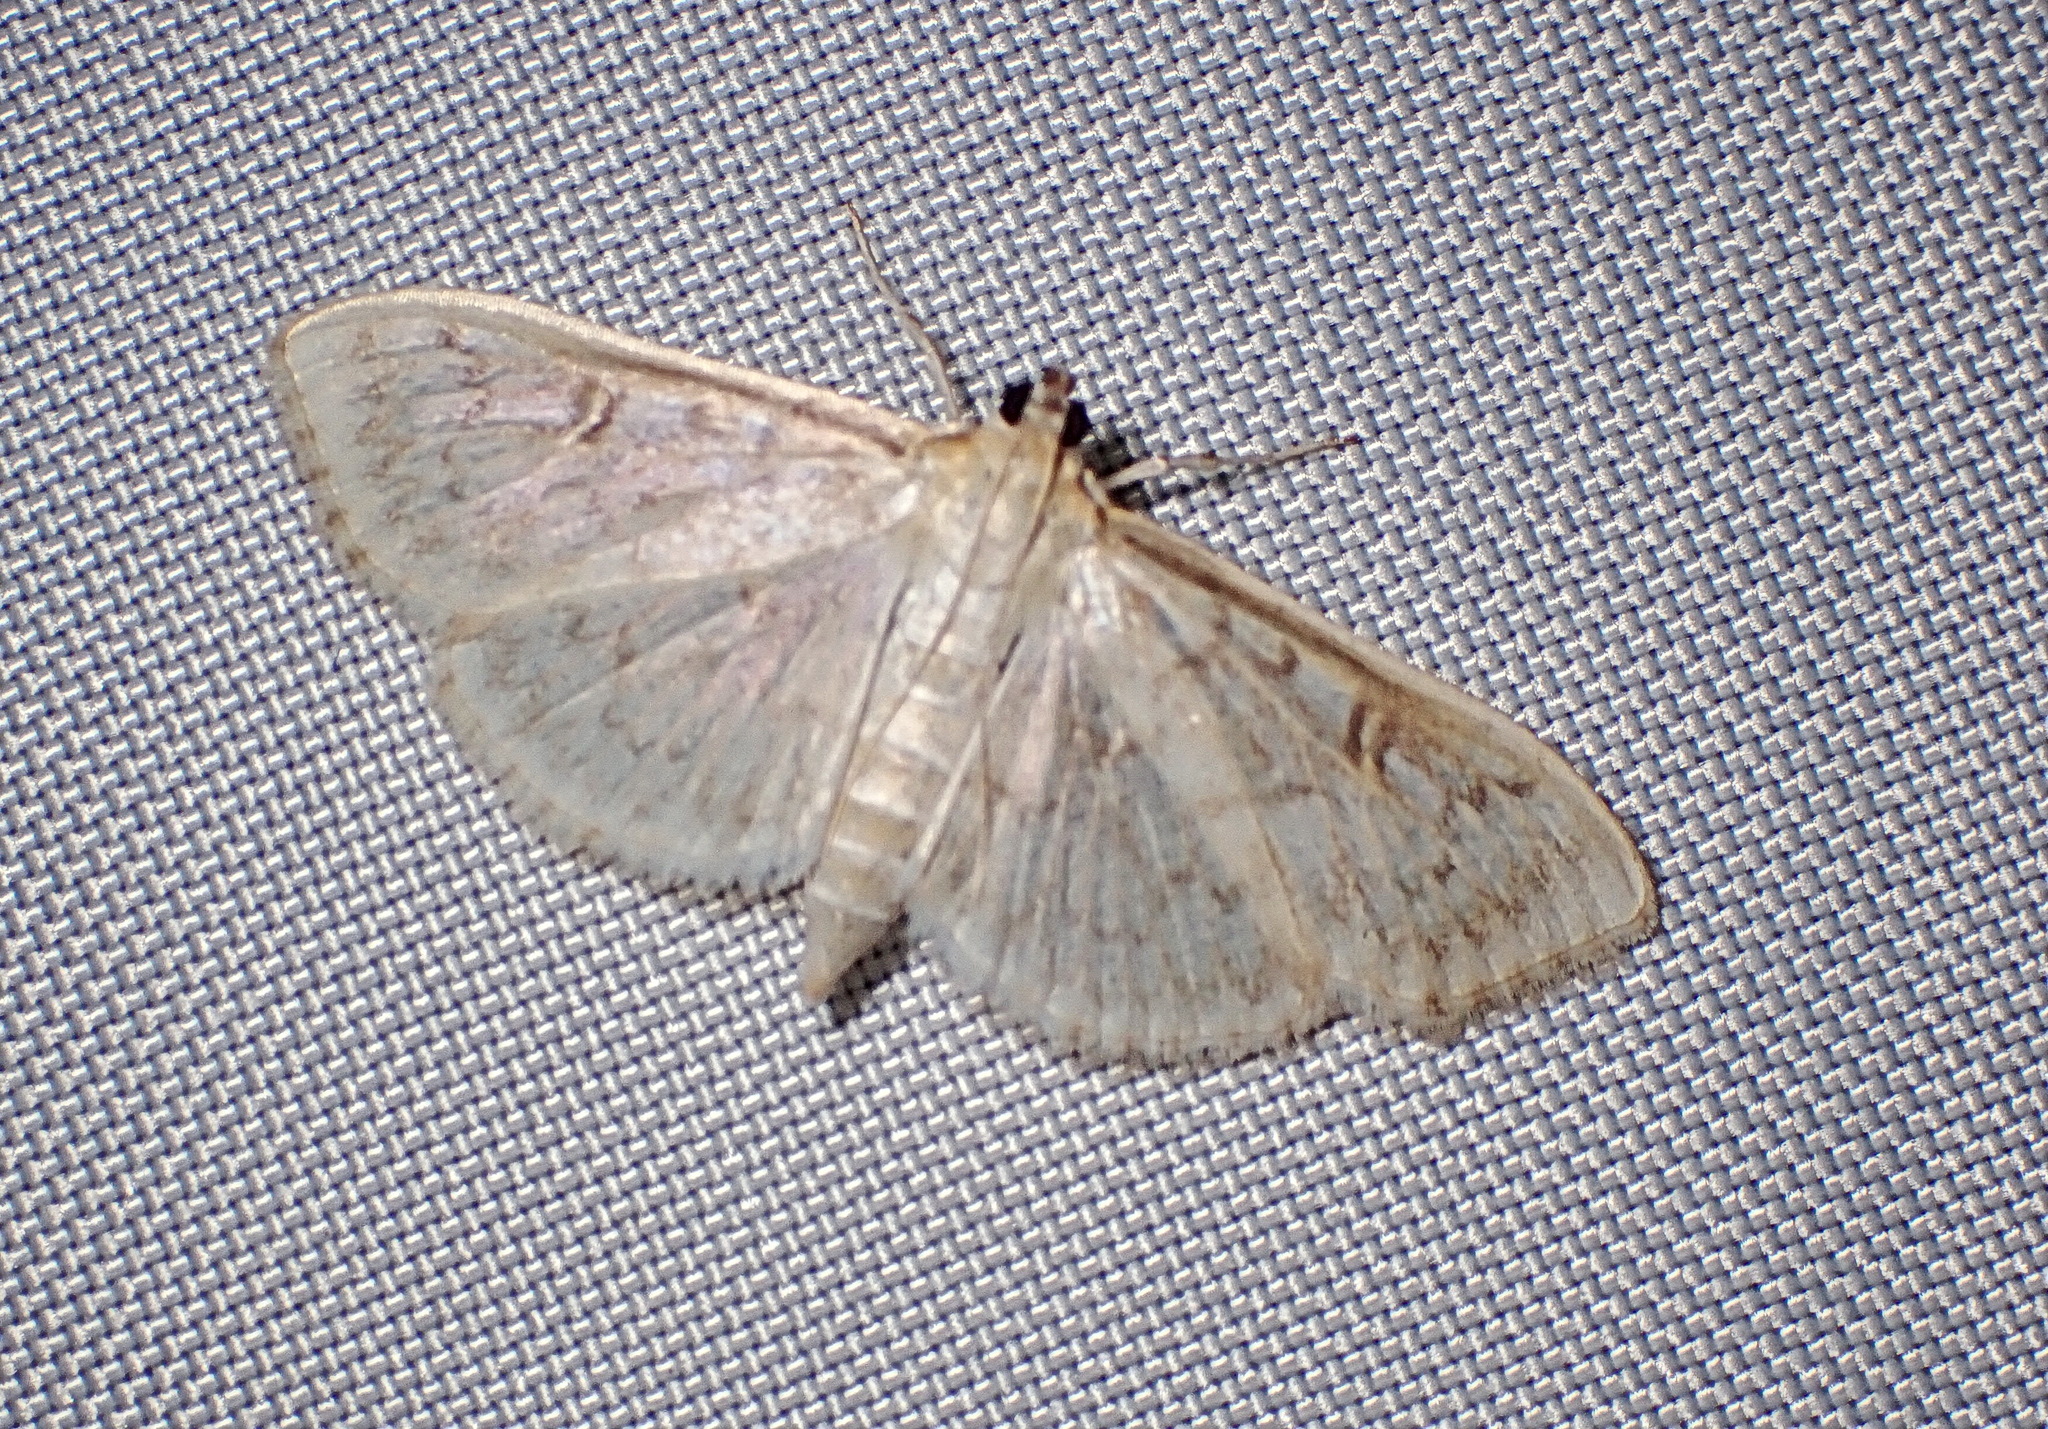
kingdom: Animalia
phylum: Arthropoda
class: Insecta
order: Lepidoptera
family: Crambidae
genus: Herpetogramma
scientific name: Herpetogramma aquilonalis
